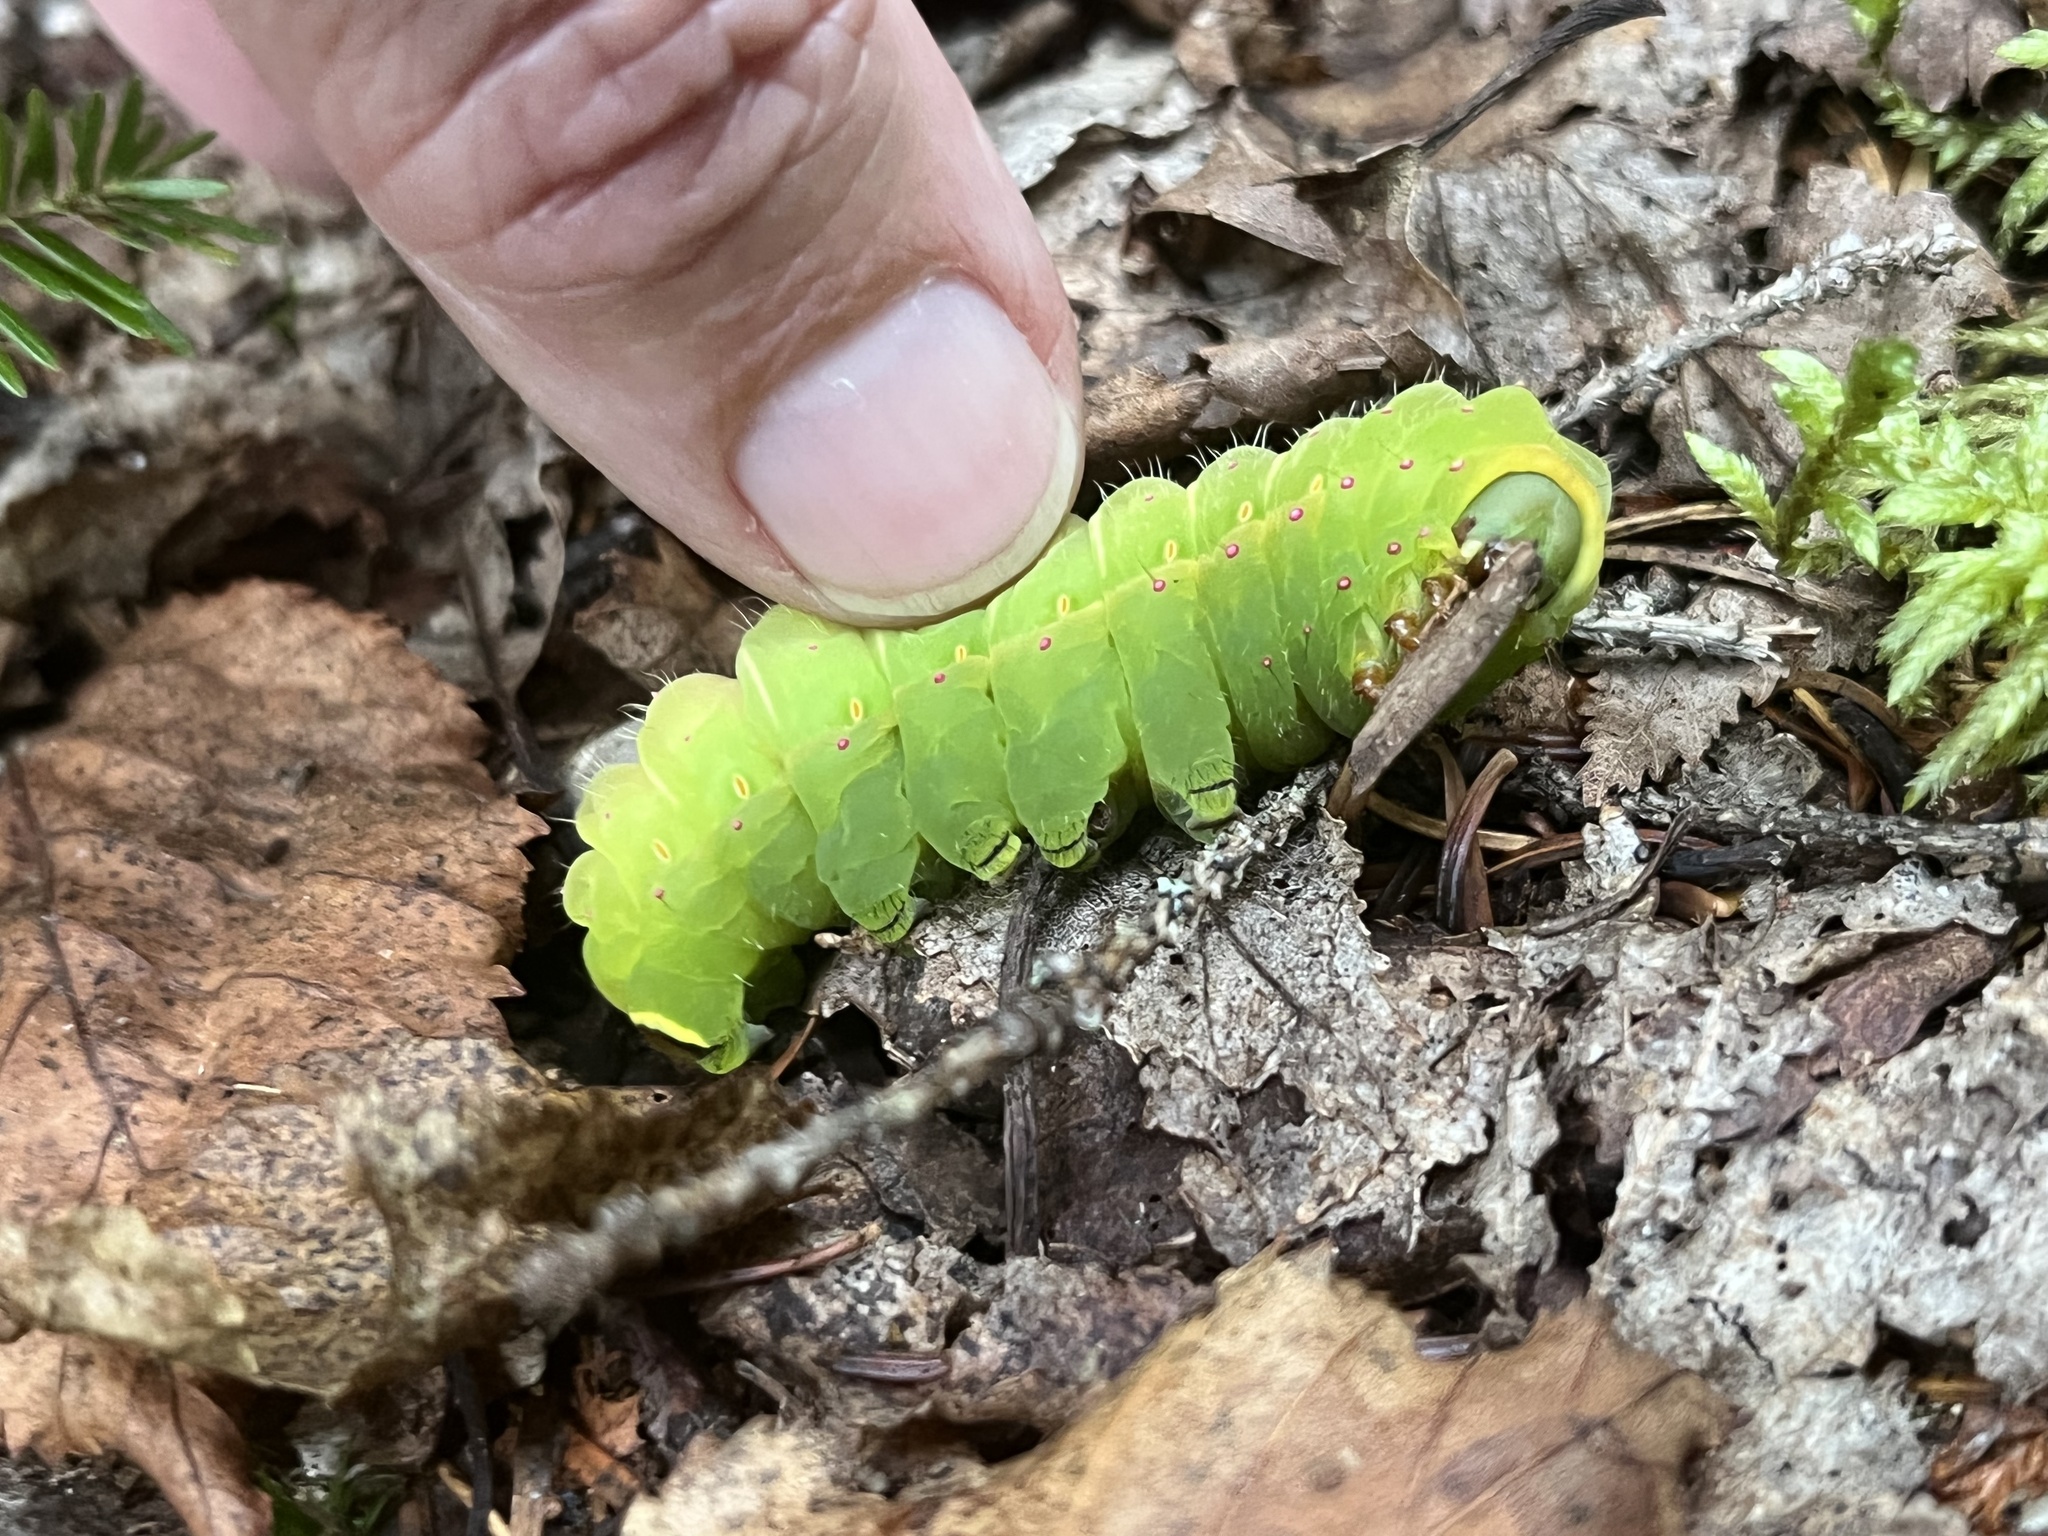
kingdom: Animalia
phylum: Arthropoda
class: Insecta
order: Lepidoptera
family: Saturniidae
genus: Actias
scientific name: Actias luna
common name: Luna moth
